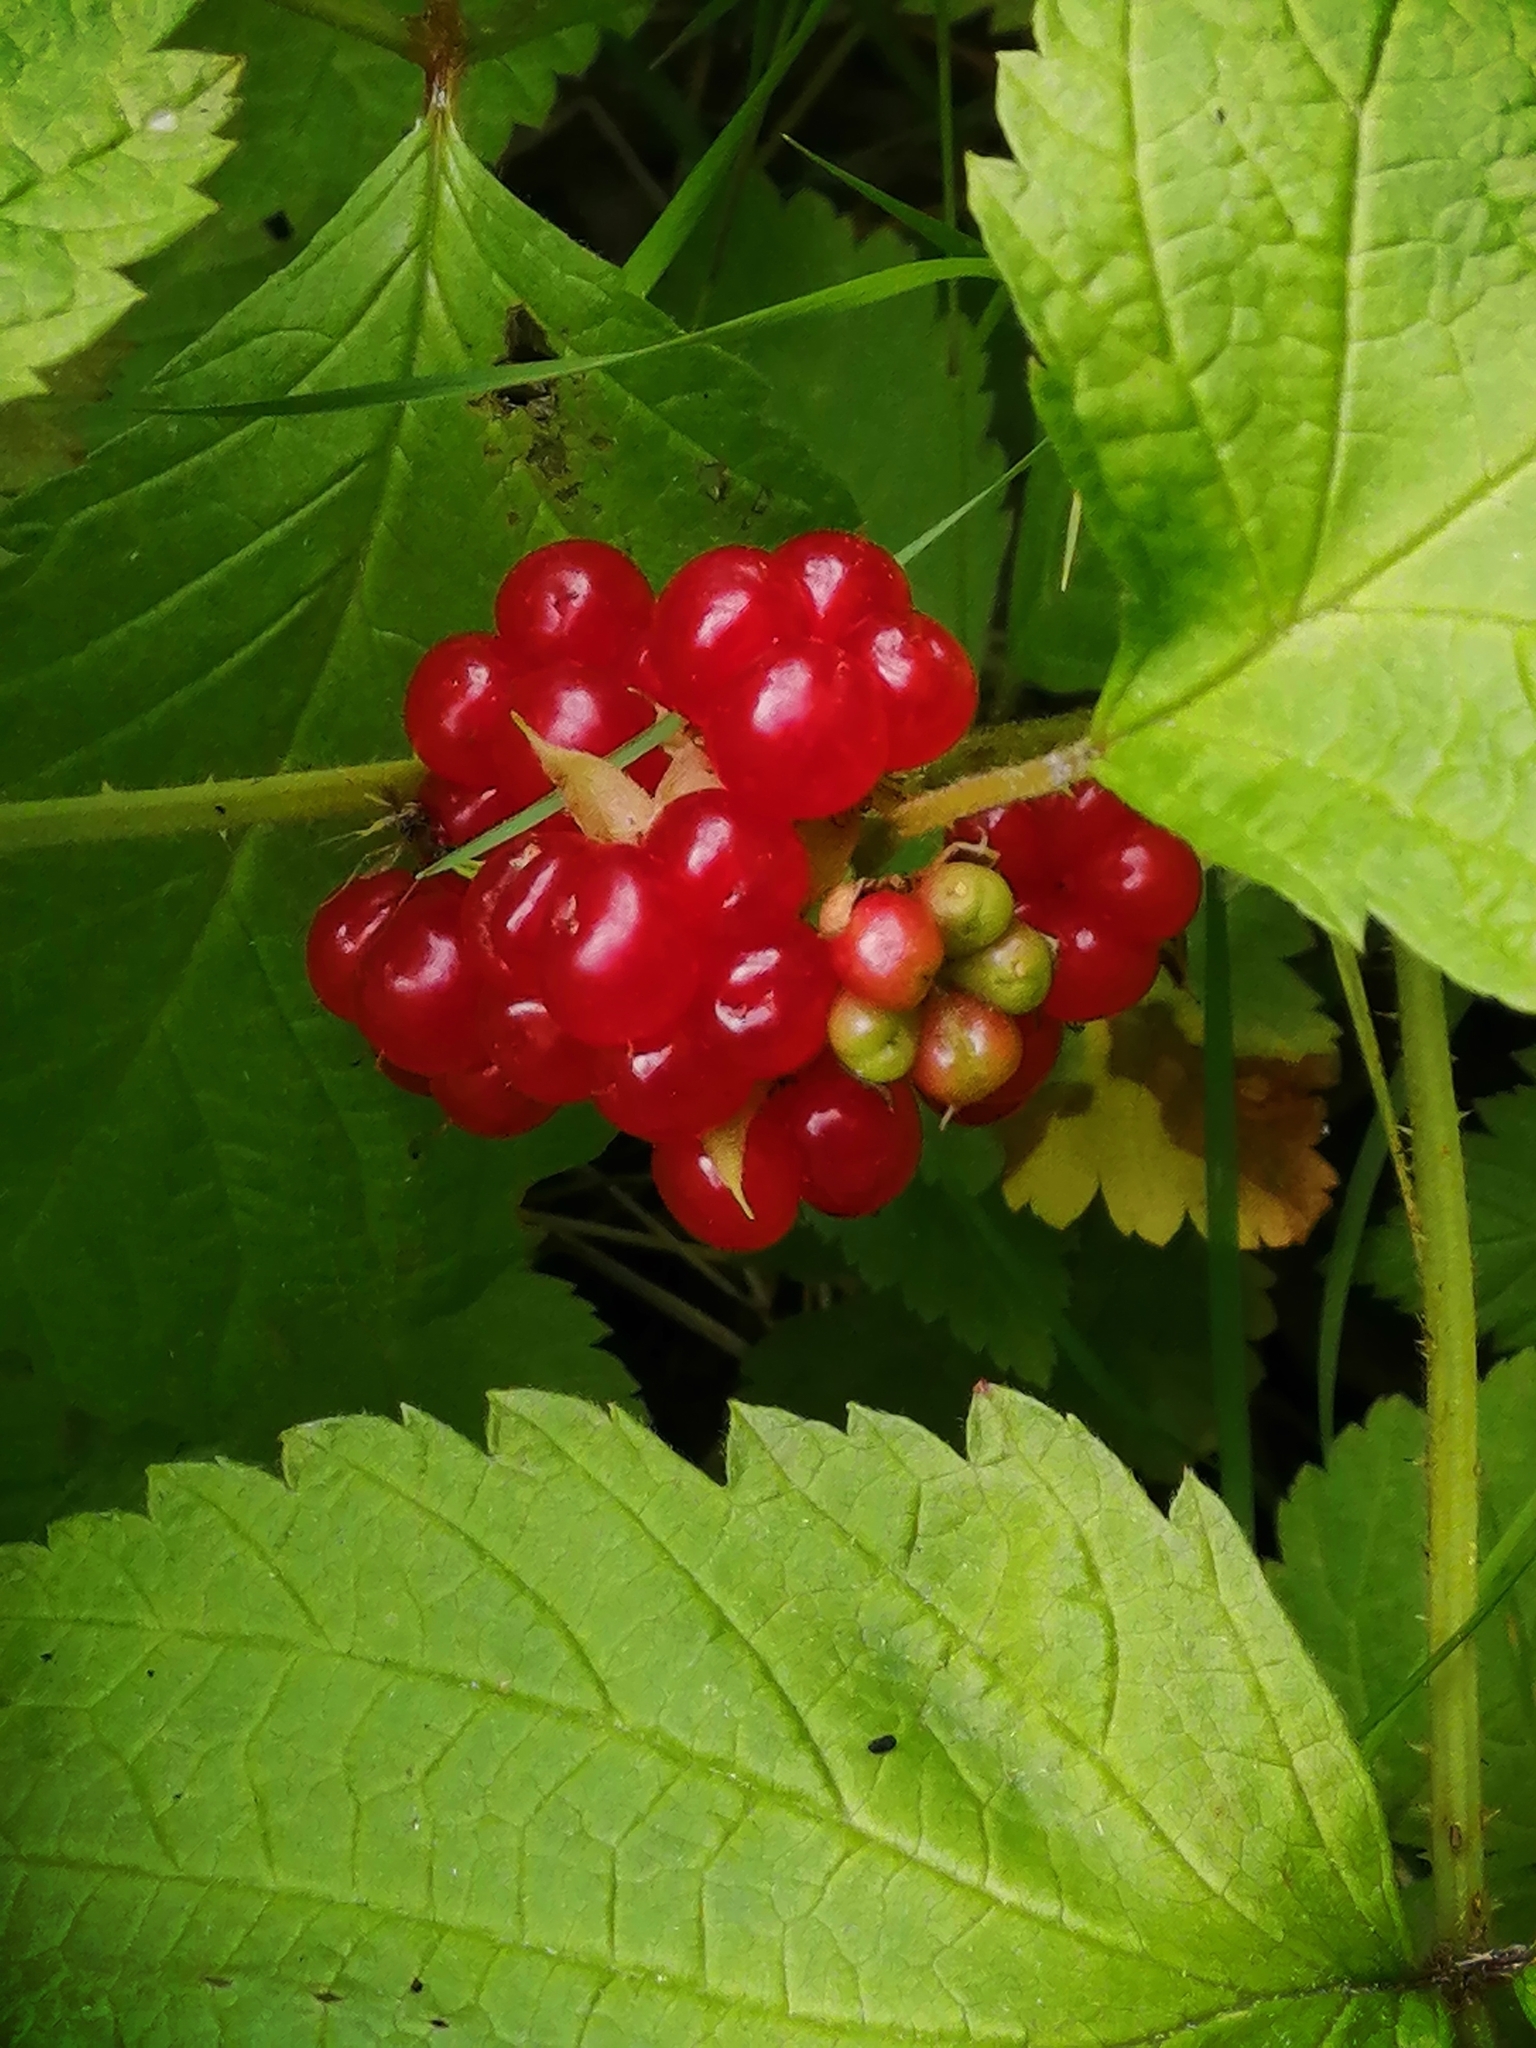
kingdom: Plantae
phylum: Tracheophyta
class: Magnoliopsida
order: Rosales
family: Rosaceae
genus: Rubus
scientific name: Rubus saxatilis
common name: Stone bramble
